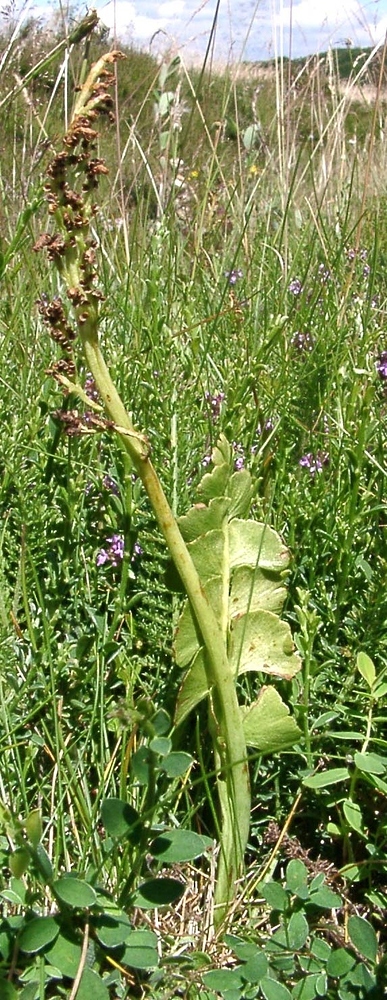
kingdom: Plantae
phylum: Tracheophyta
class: Polypodiopsida
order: Ophioglossales
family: Ophioglossaceae
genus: Botrychium
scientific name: Botrychium lunaria
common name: Moonwort
